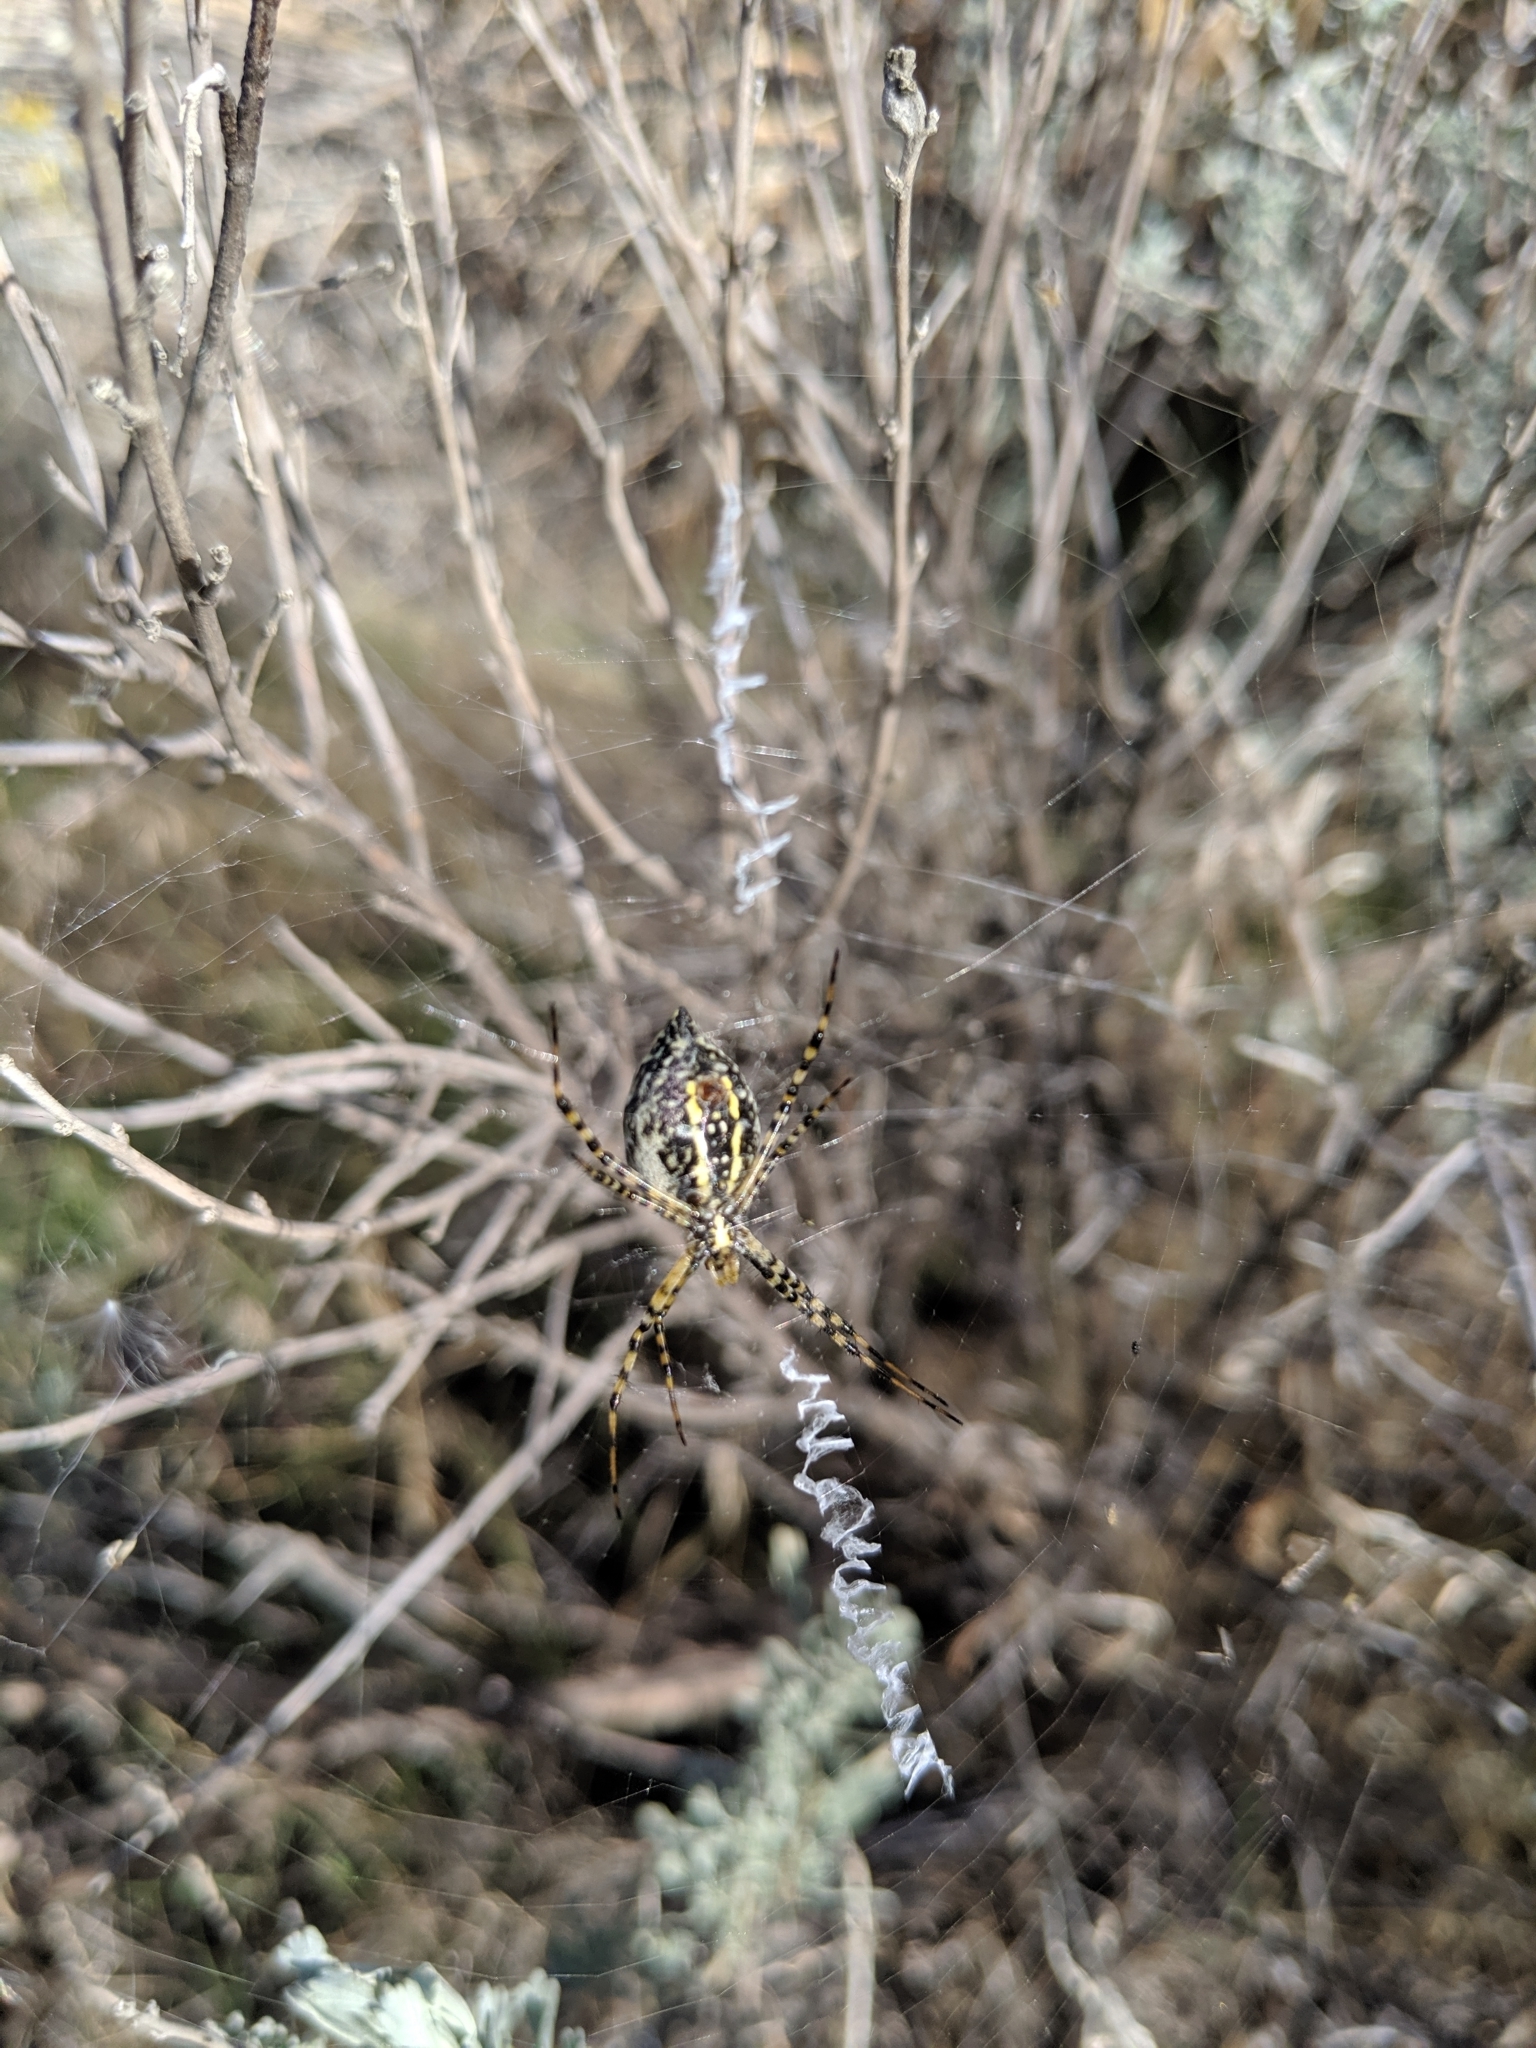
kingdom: Animalia
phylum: Arthropoda
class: Arachnida
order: Araneae
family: Araneidae
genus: Argiope
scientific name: Argiope trifasciata
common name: Banded garden spider
